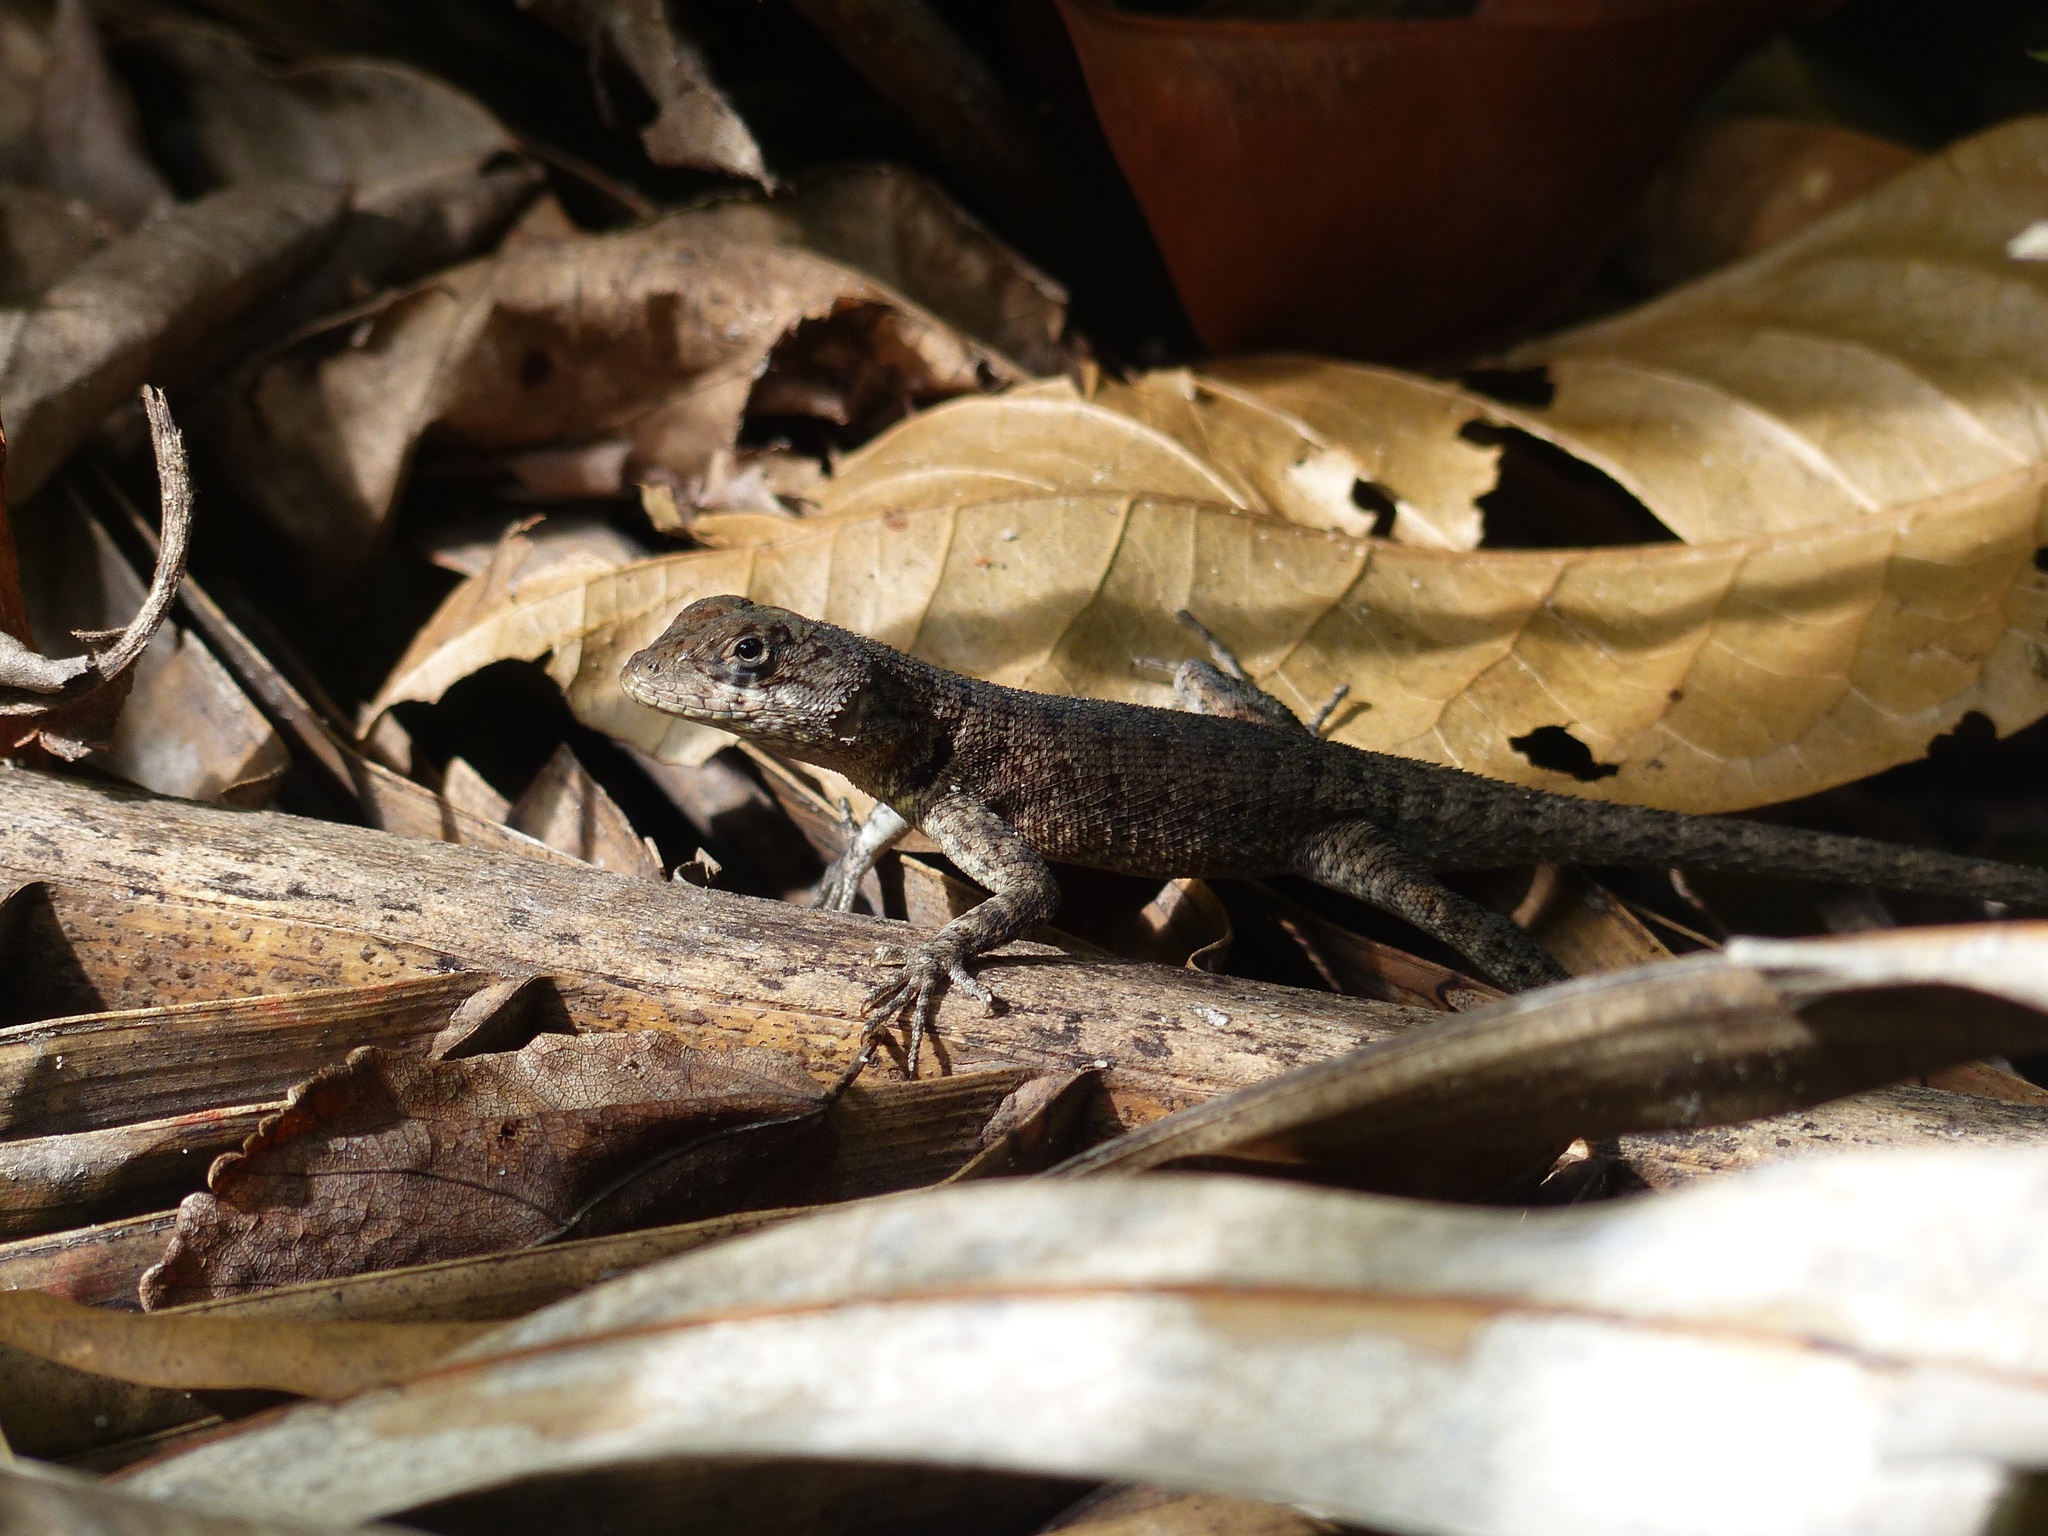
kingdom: Animalia
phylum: Chordata
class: Squamata
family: Tropiduridae
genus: Tropidurus
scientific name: Tropidurus hispidus
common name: Peters' lava lizard
